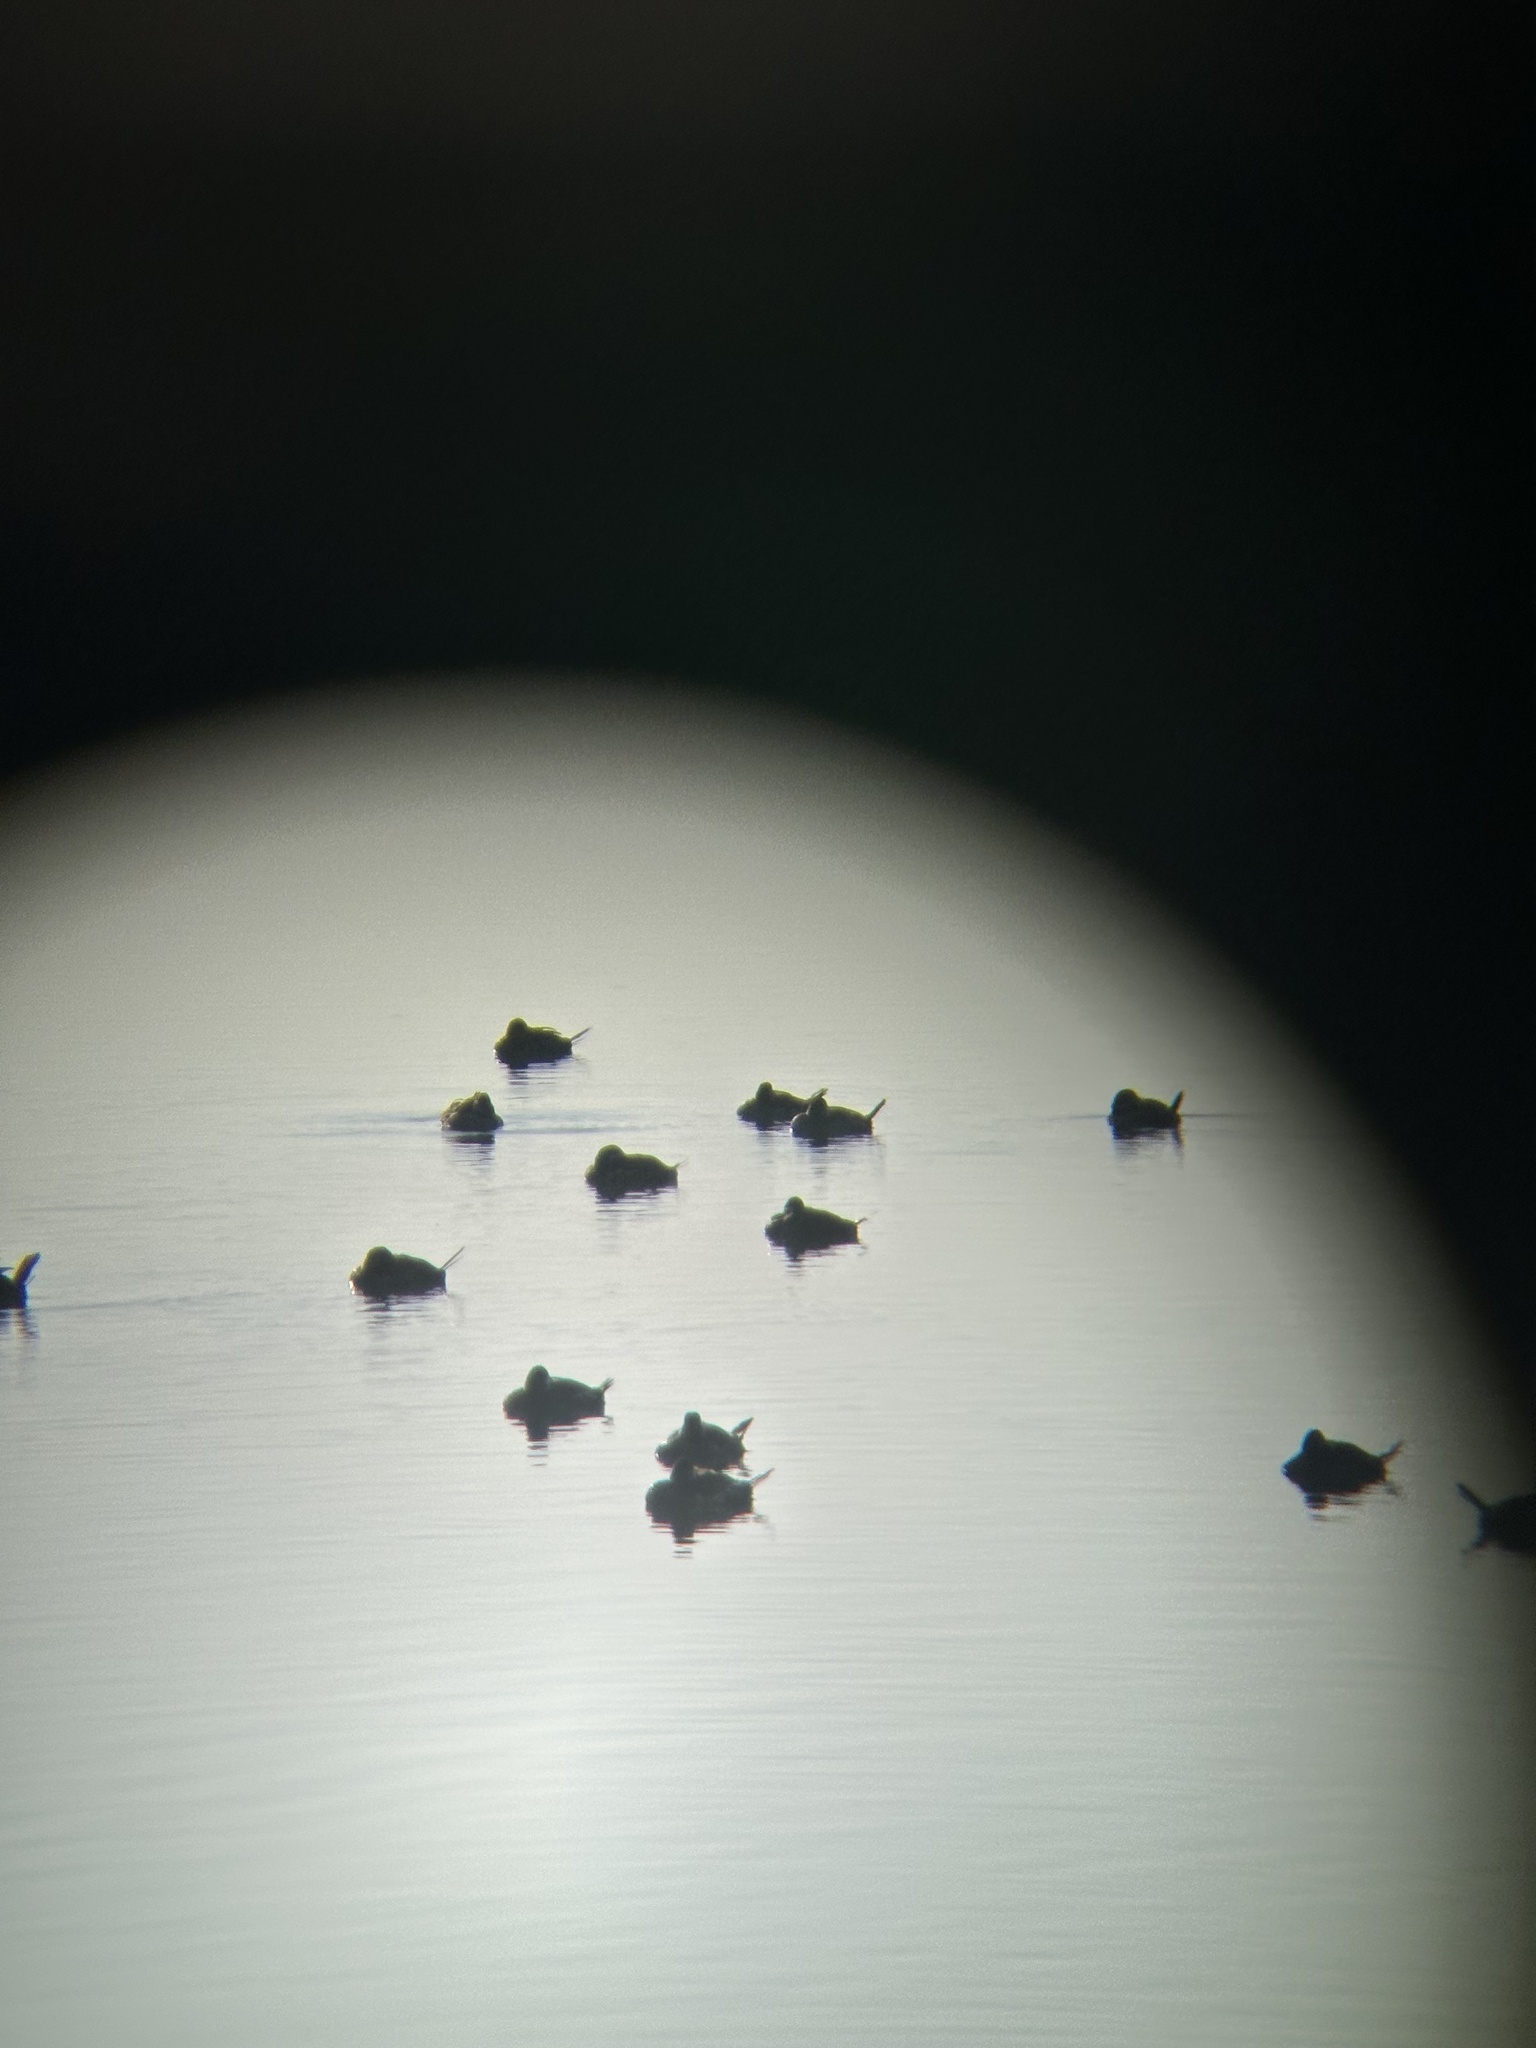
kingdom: Animalia
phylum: Chordata
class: Aves
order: Anseriformes
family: Anatidae
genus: Oxyura
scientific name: Oxyura jamaicensis
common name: Ruddy duck
